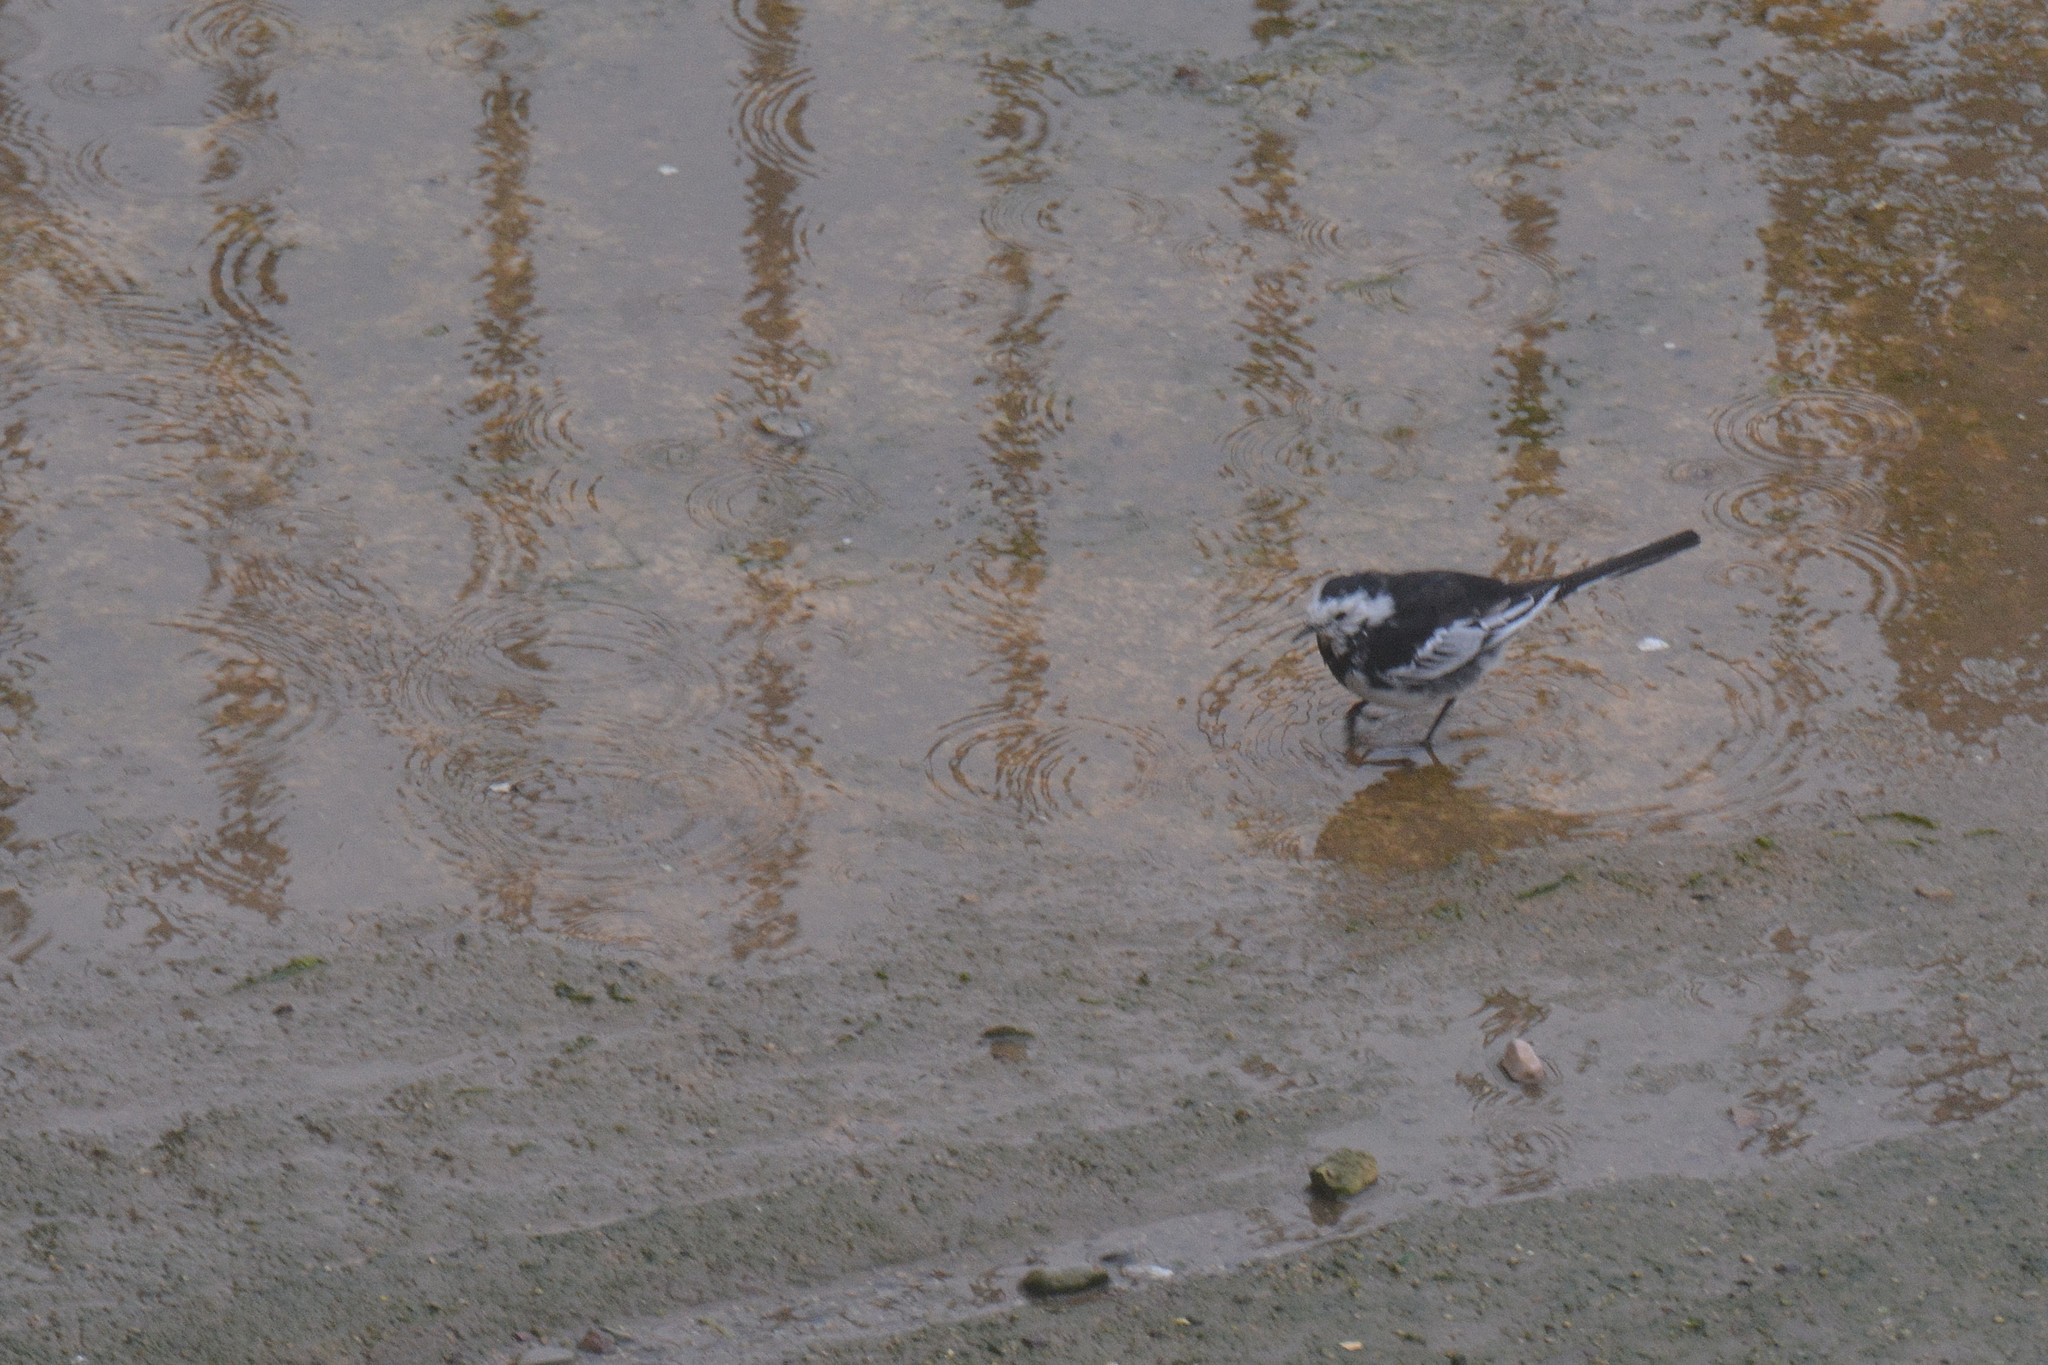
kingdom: Animalia
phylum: Chordata
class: Aves
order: Passeriformes
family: Motacillidae
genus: Motacilla
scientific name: Motacilla alba
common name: White wagtail
